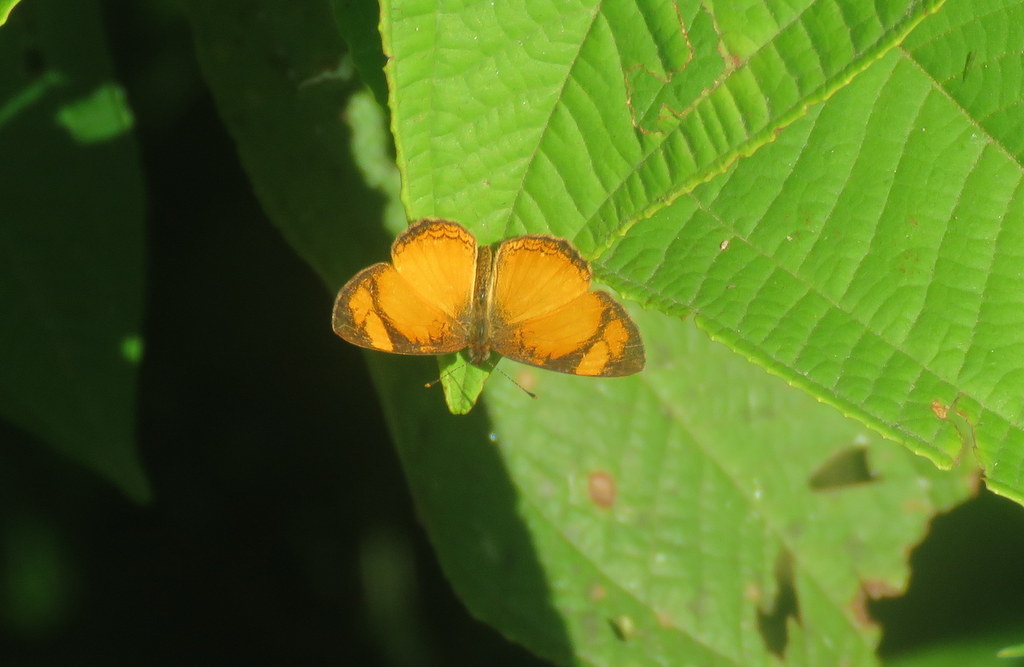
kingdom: Animalia
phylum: Arthropoda
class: Insecta
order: Lepidoptera
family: Nymphalidae
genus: Tegosa
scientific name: Tegosa claudina
